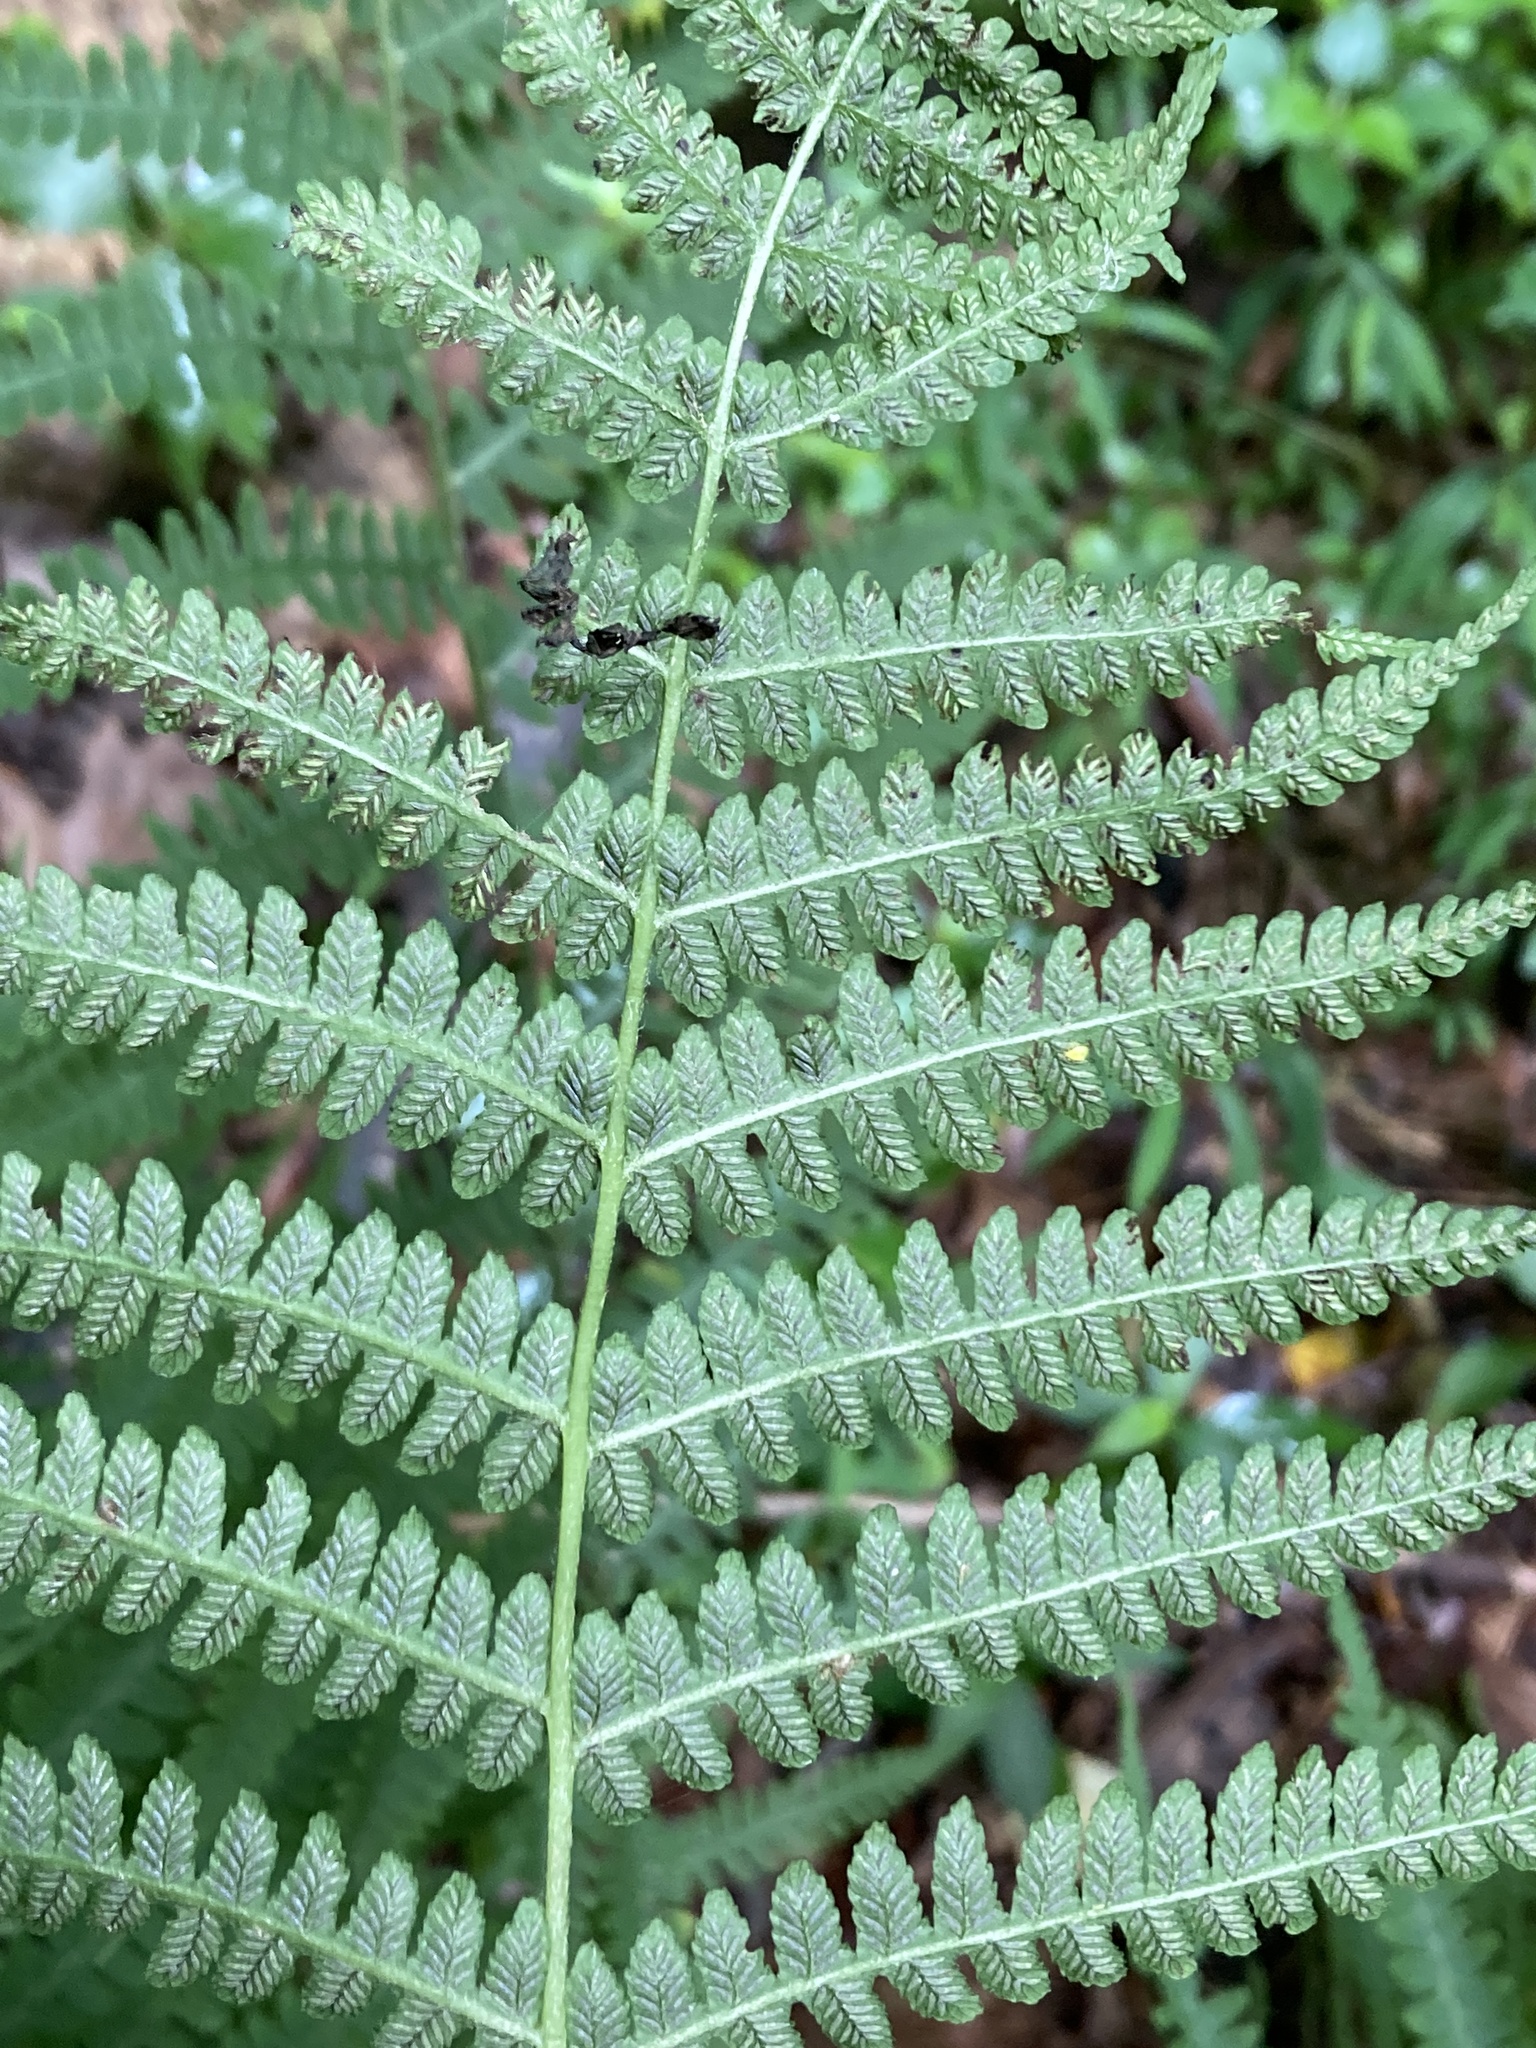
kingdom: Plantae
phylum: Tracheophyta
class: Polypodiopsida
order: Polypodiales
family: Athyriaceae
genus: Deparia
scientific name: Deparia acrostichoides
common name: Silver false spleenwort
